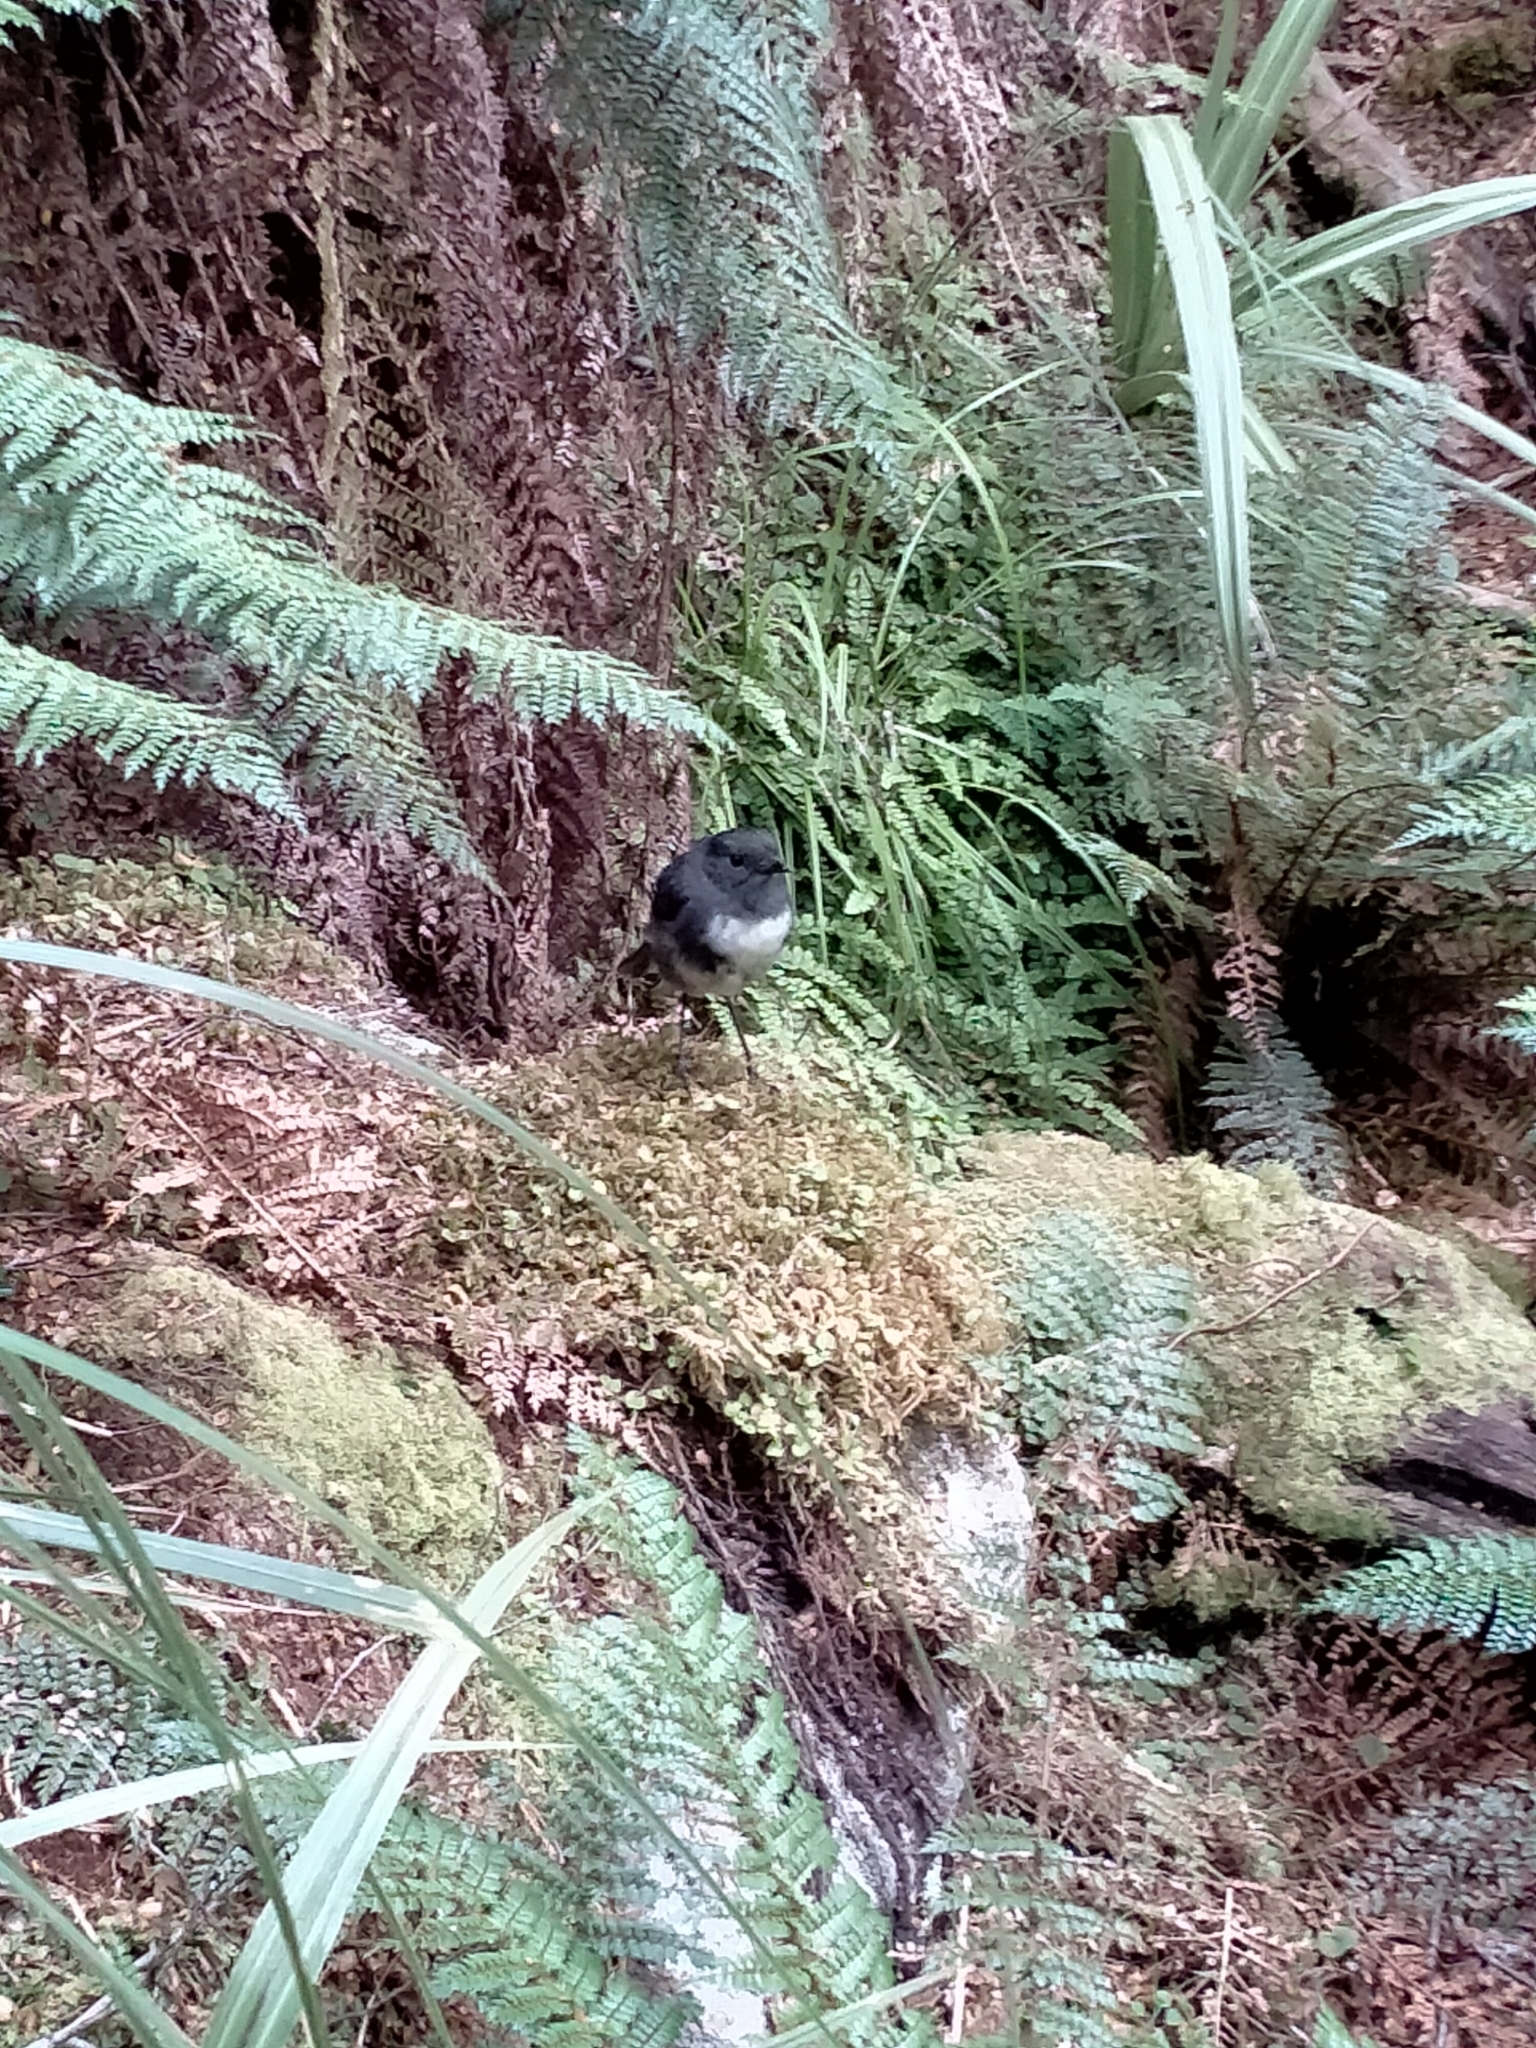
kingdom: Animalia
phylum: Chordata
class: Aves
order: Passeriformes
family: Petroicidae
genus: Petroica
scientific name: Petroica australis
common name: New zealand robin
